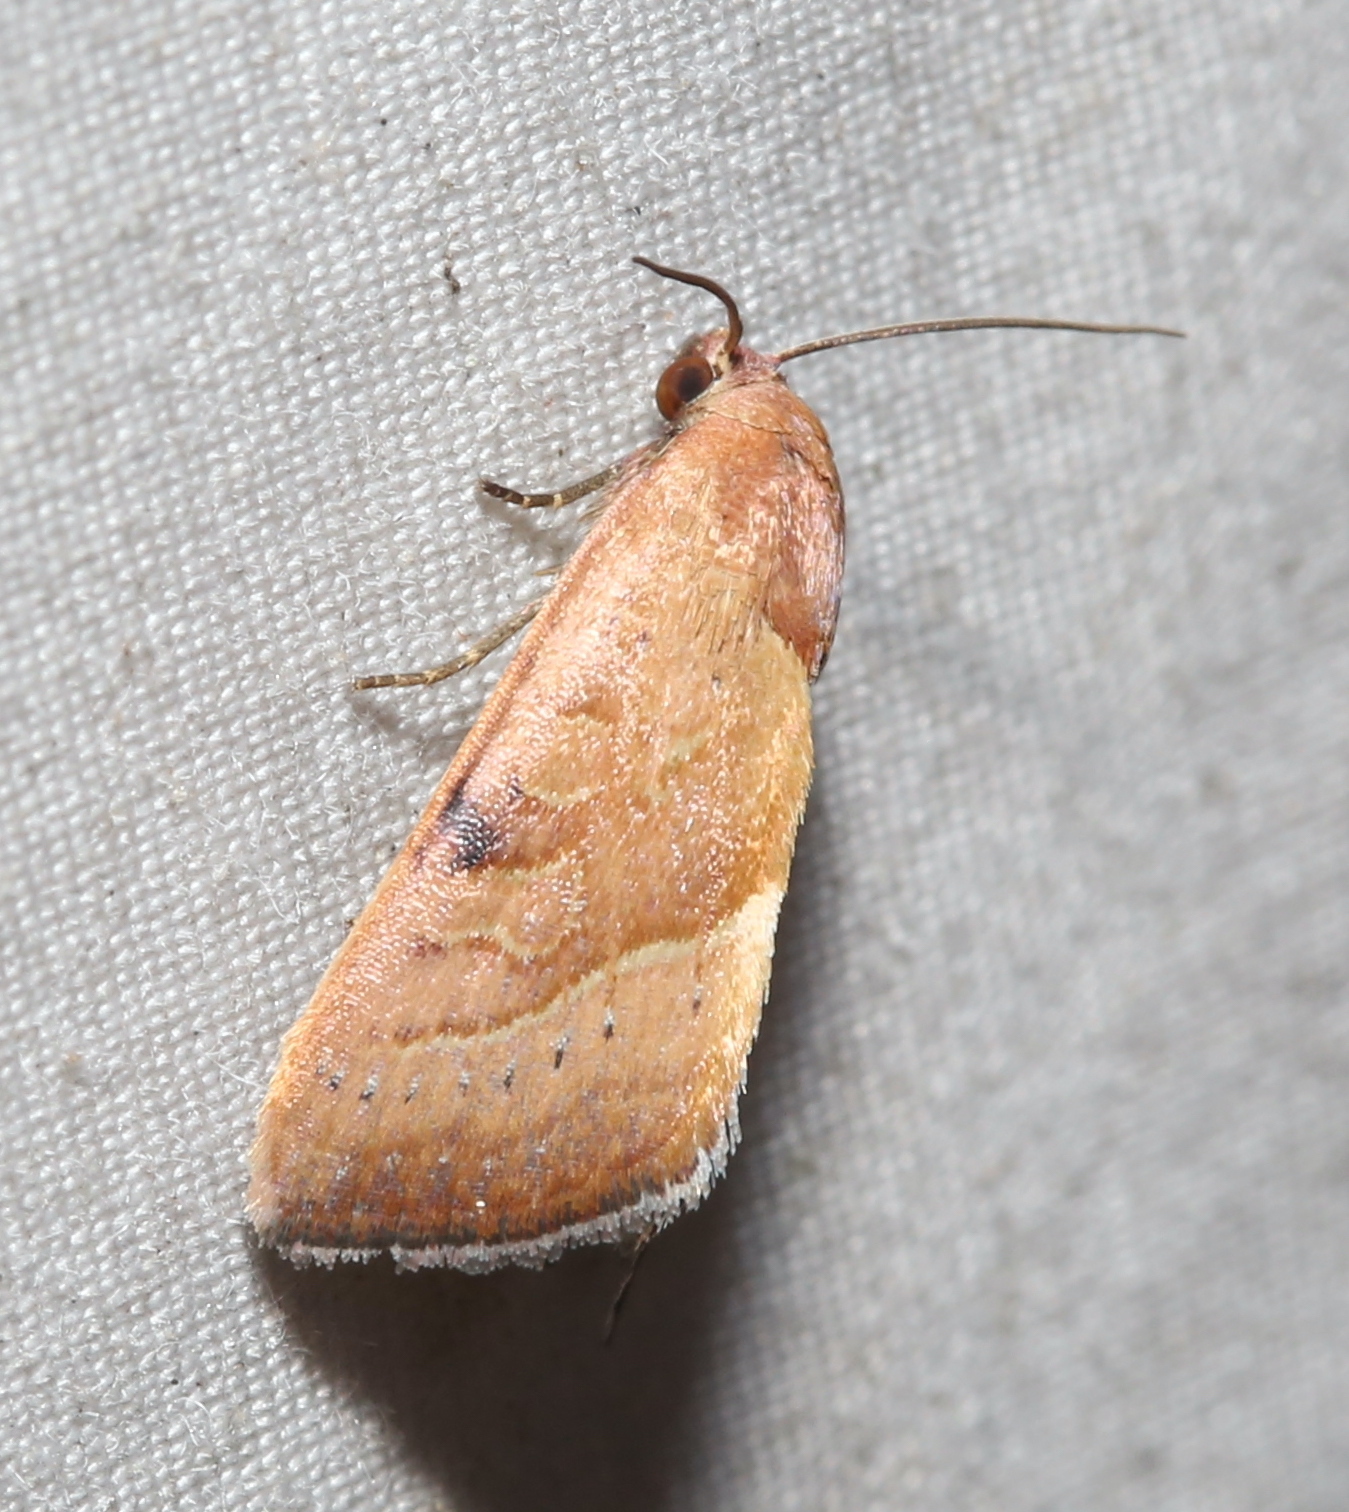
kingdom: Animalia
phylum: Arthropoda
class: Insecta
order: Lepidoptera
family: Noctuidae
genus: Galgula
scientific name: Galgula partita
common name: Wedgeling
